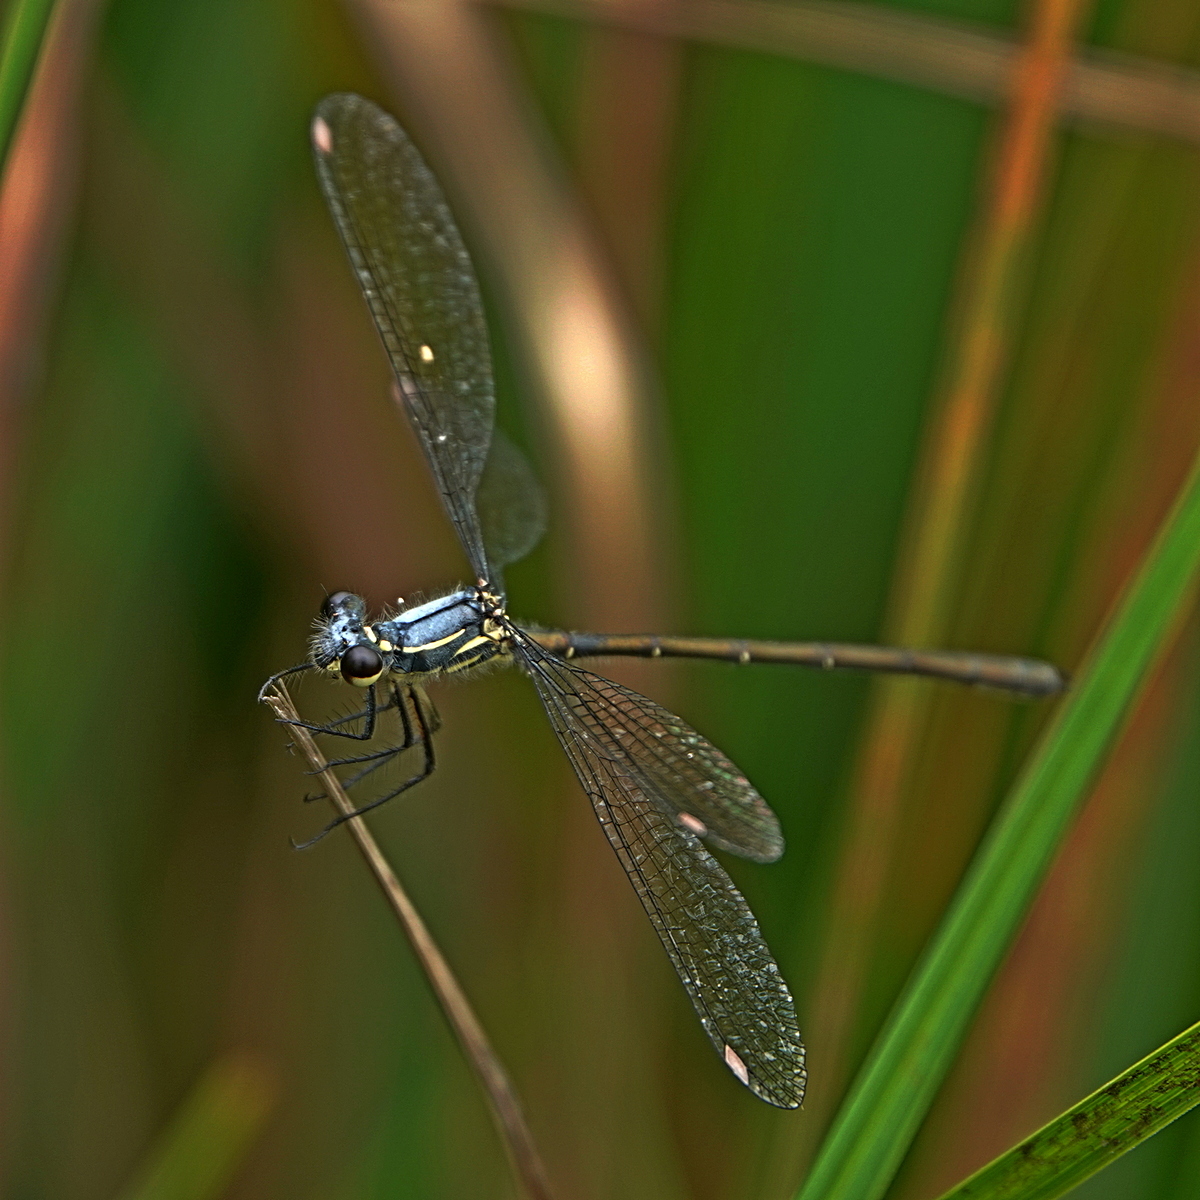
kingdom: Animalia
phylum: Arthropoda
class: Insecta
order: Odonata
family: Argiolestidae
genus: Griseargiolestes
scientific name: Griseargiolestes eboracus
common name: Grey-chested flatwing
